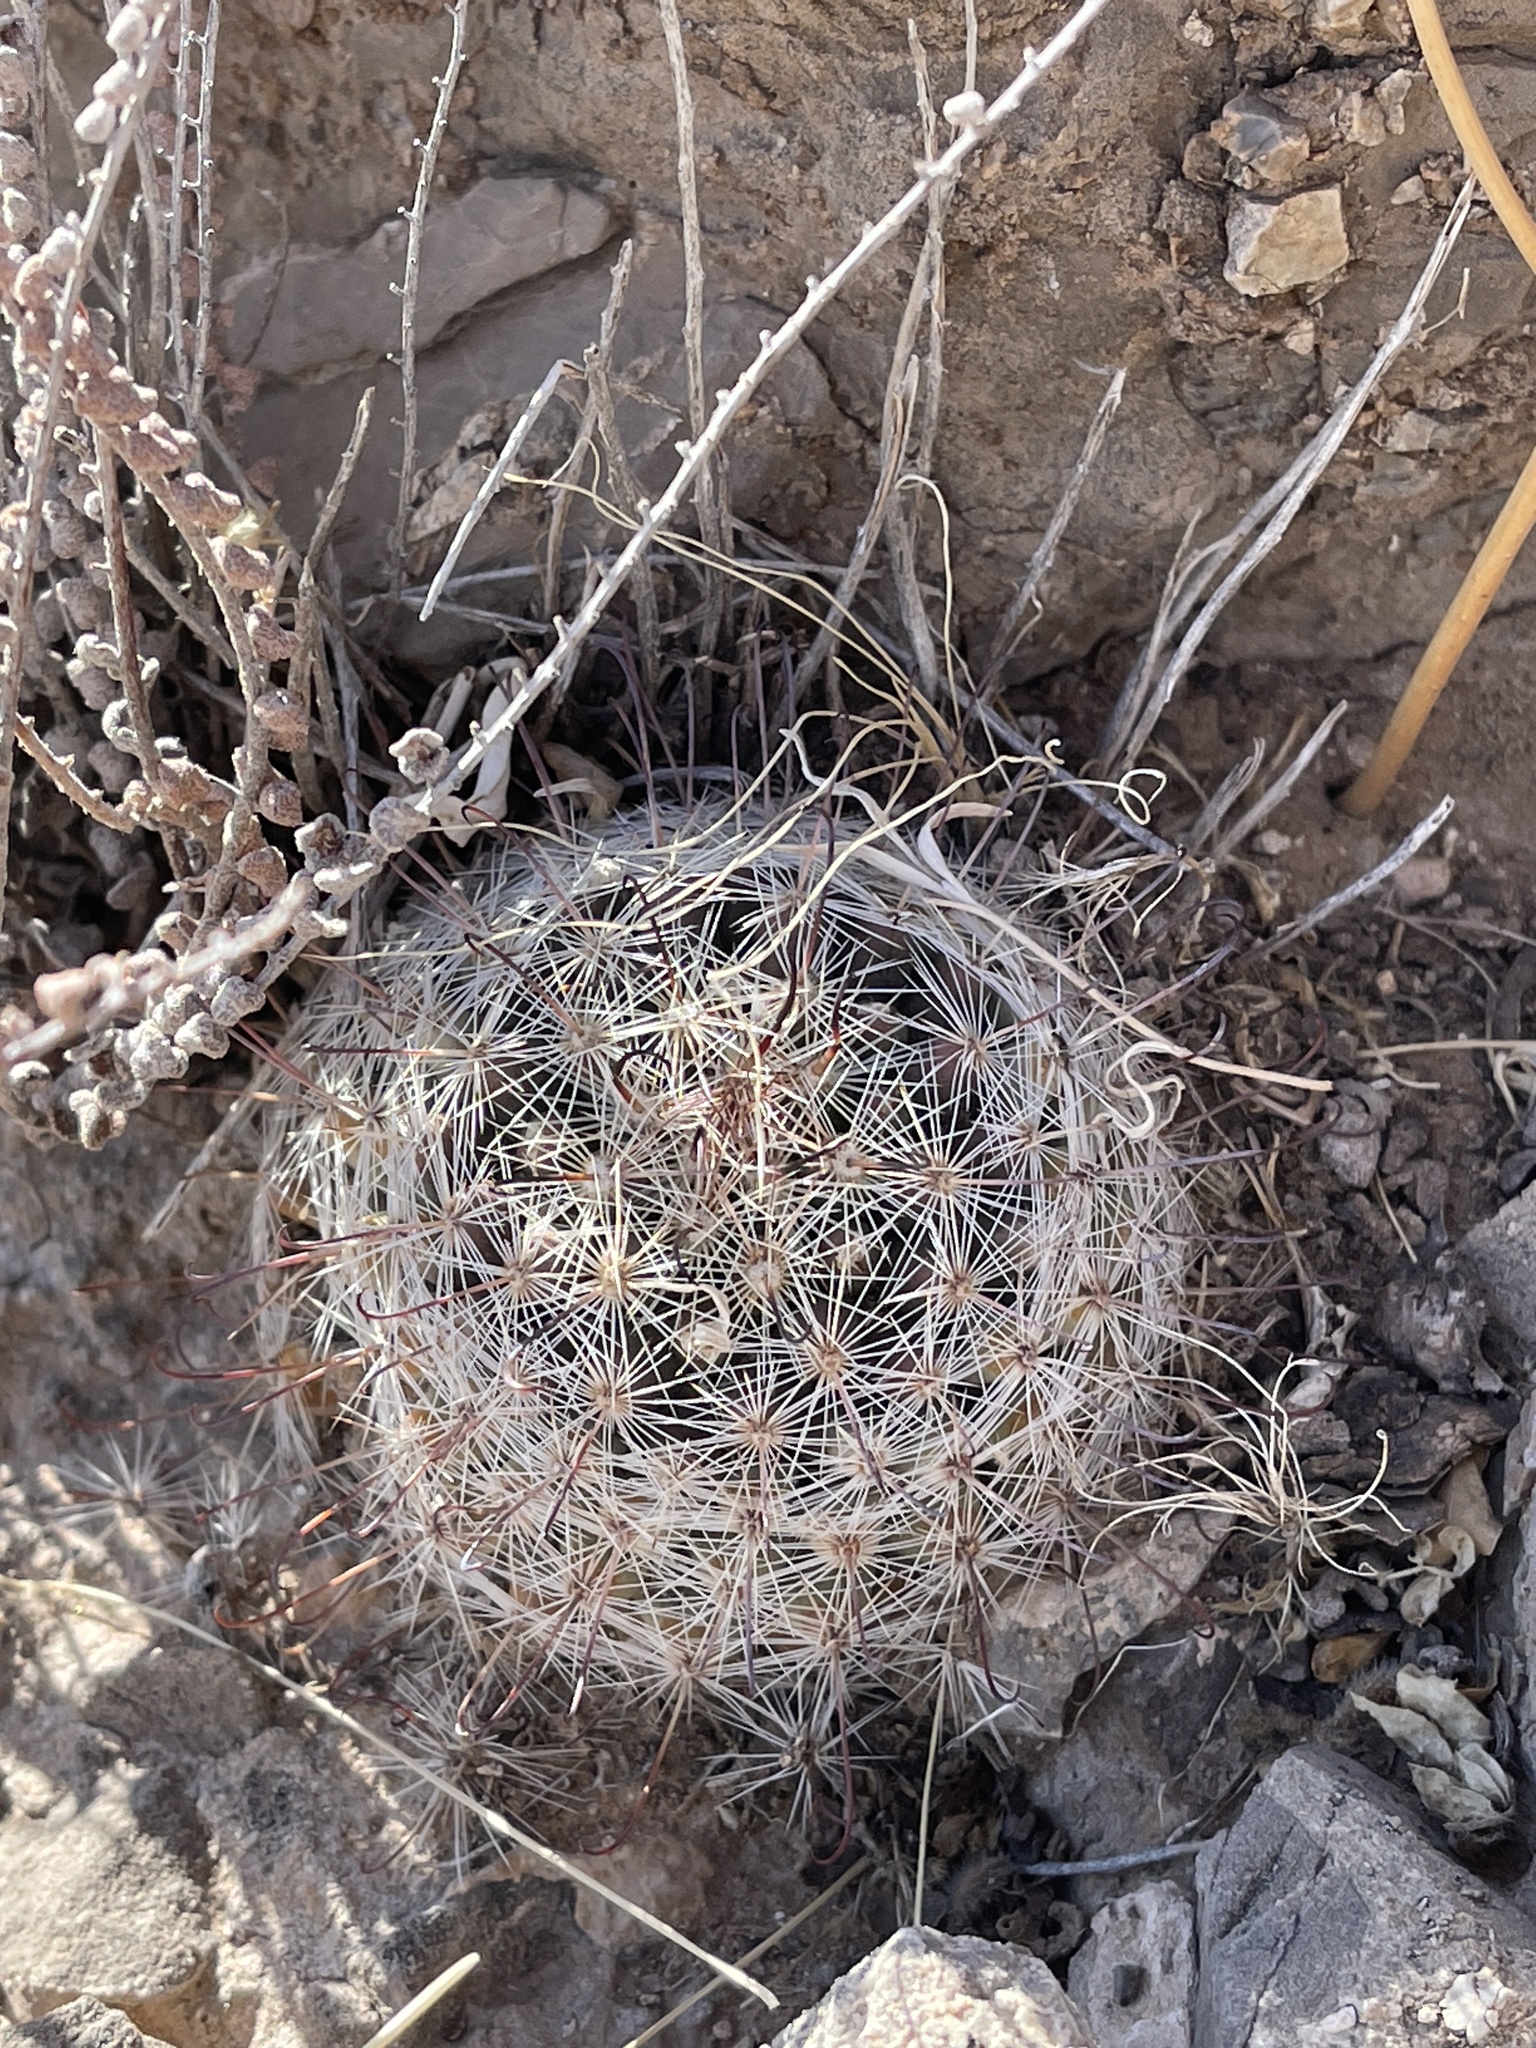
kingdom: Plantae
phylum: Tracheophyta
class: Magnoliopsida
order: Caryophyllales
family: Cactaceae
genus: Cochemiea
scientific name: Cochemiea grahamii
